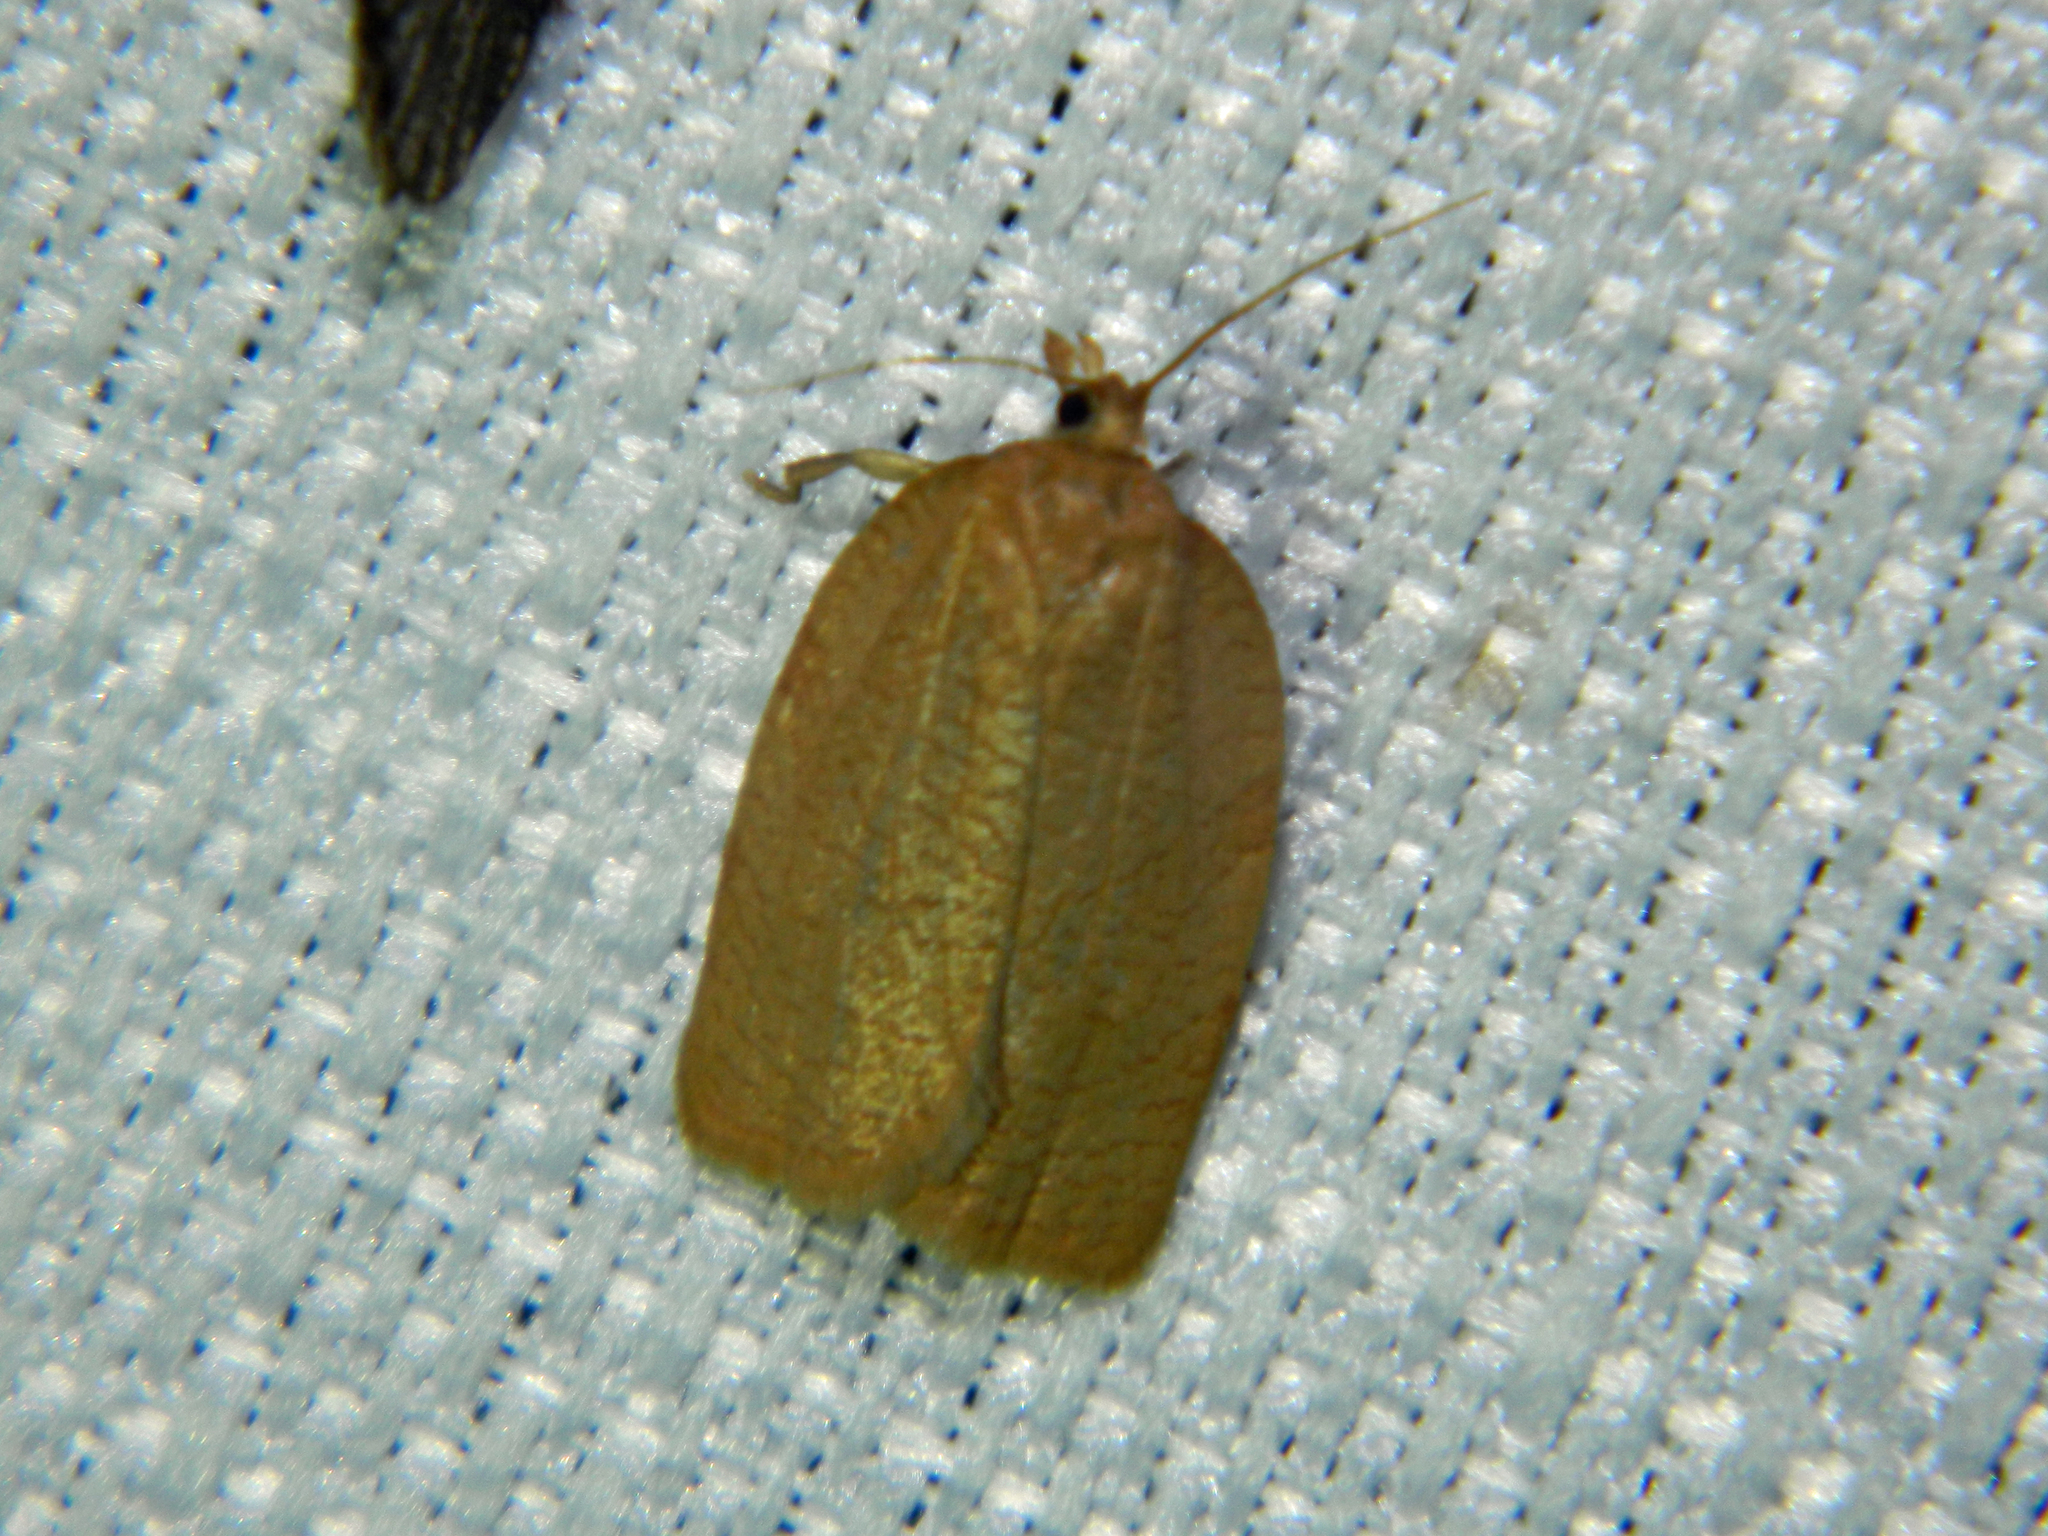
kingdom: Animalia
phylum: Arthropoda
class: Insecta
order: Lepidoptera
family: Tortricidae
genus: Aphelia
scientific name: Aphelia alleniana
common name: Allen's tortrix moth
